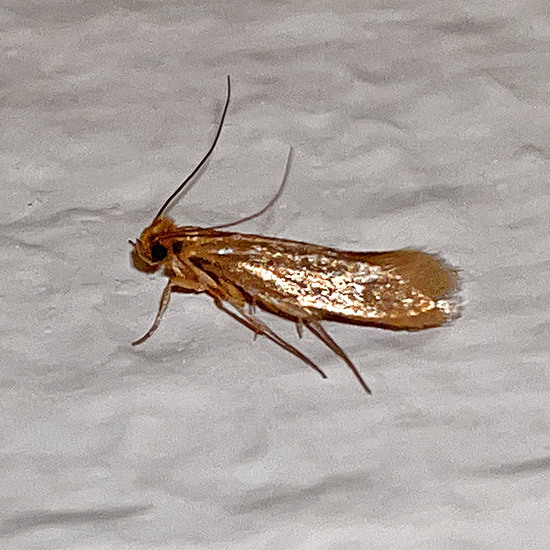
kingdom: Animalia
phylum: Arthropoda
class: Insecta
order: Lepidoptera
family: Tineidae
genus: Tineola
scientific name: Tineola bisselliella
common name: Webbing clothes moth
